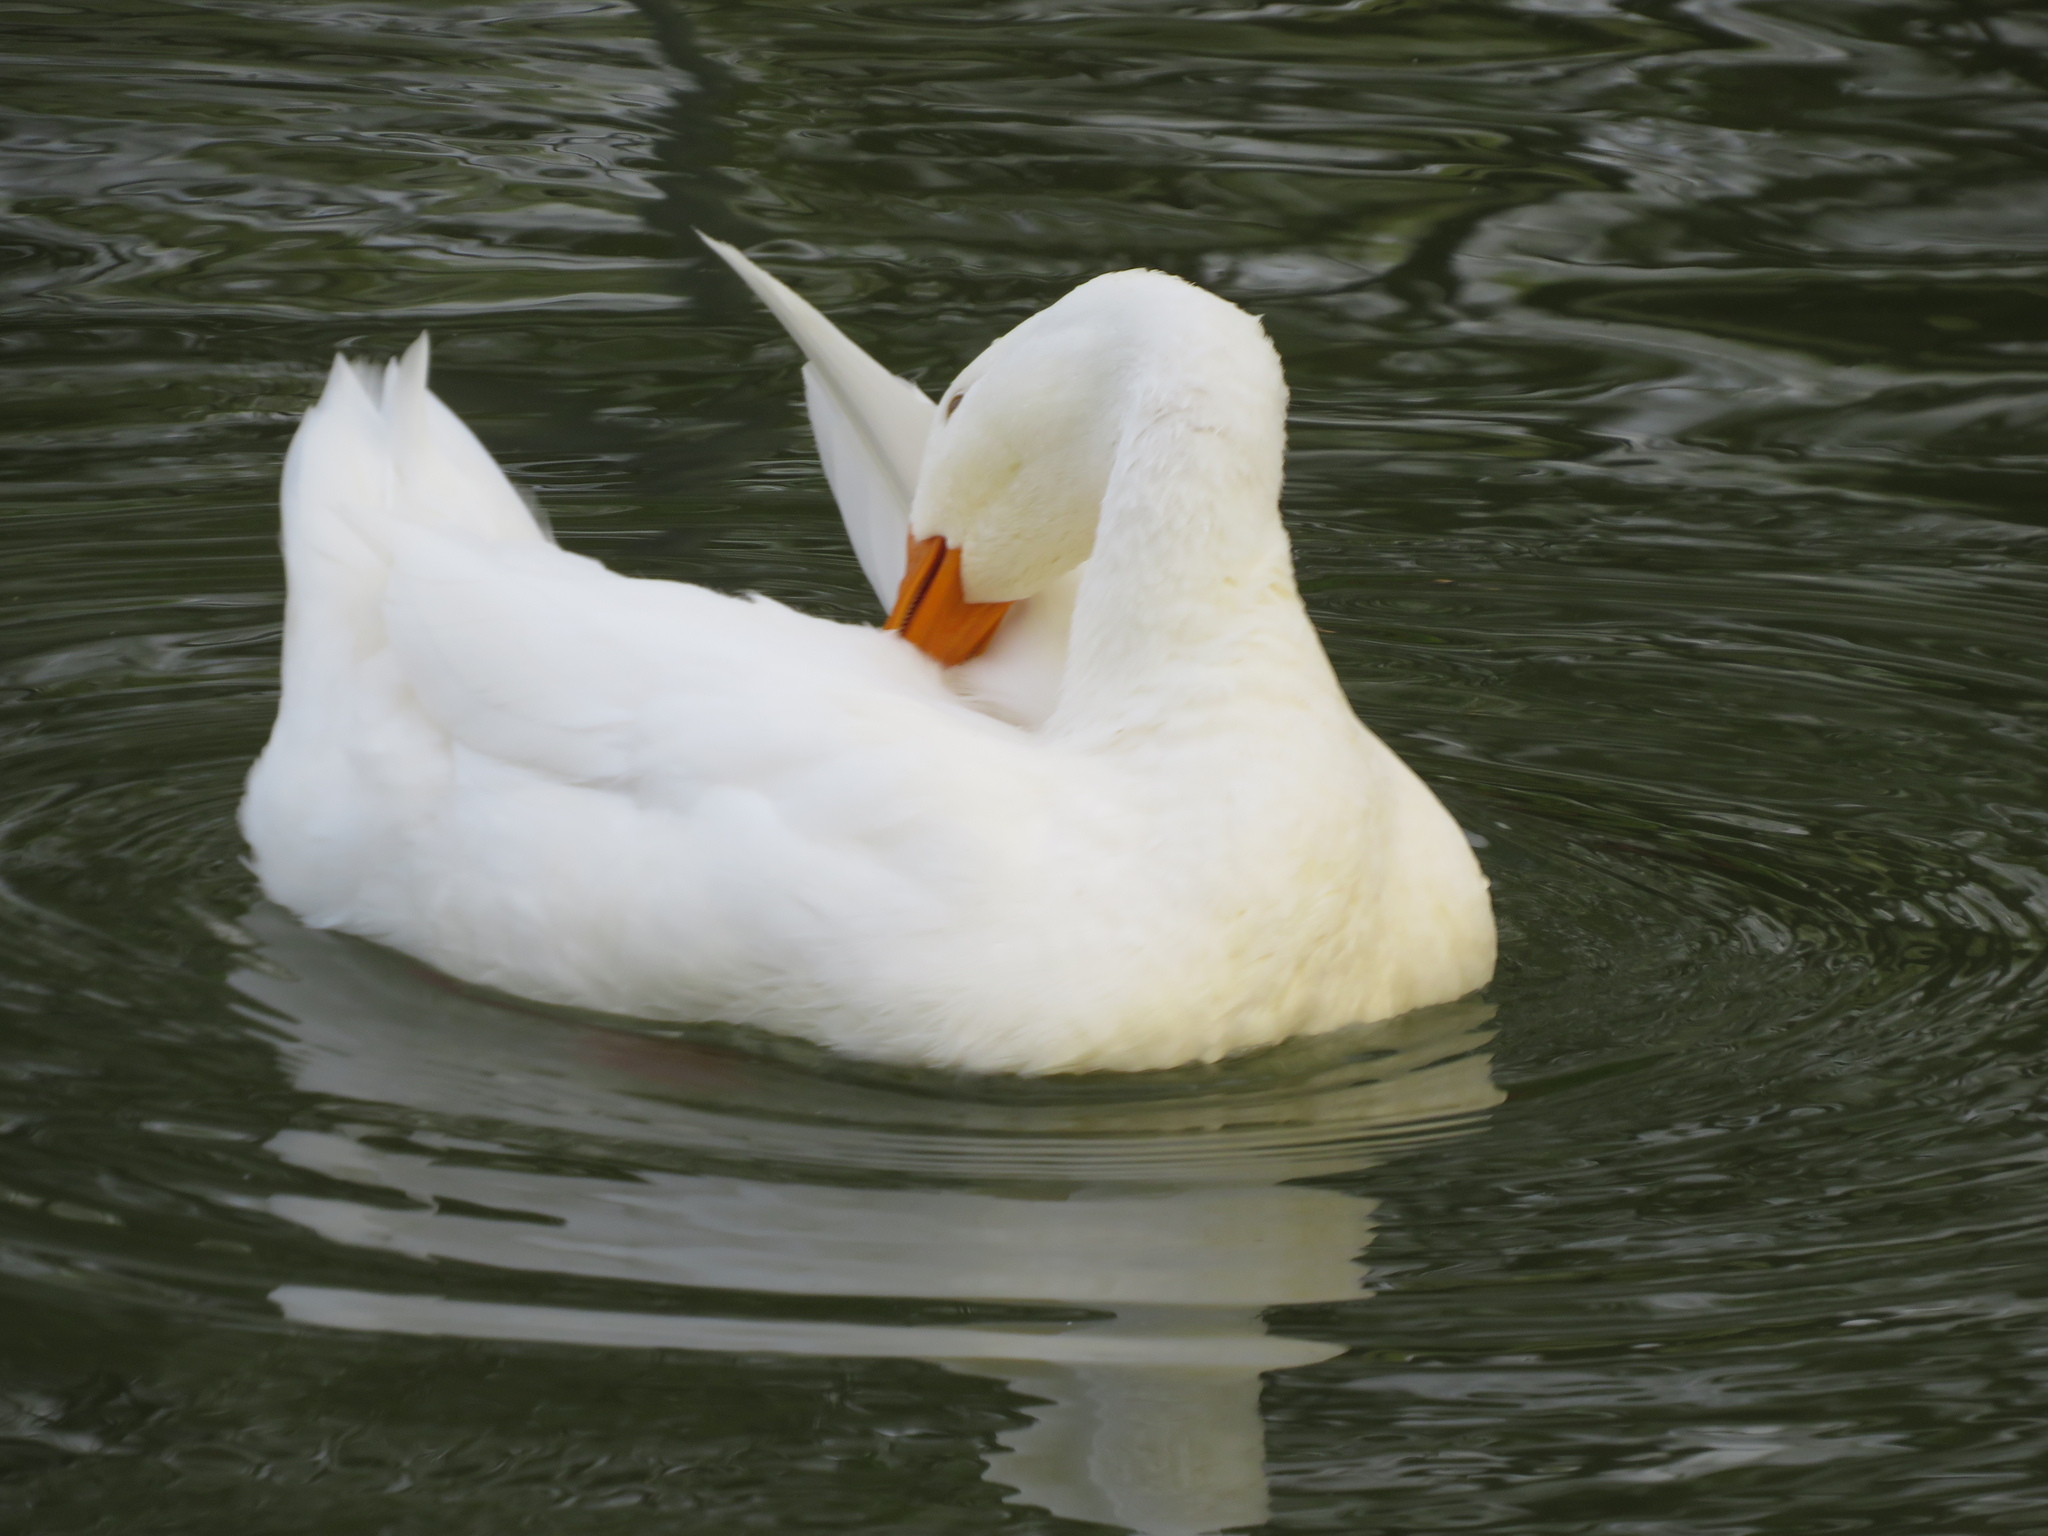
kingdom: Animalia
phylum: Chordata
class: Aves
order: Anseriformes
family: Anatidae
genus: Anas
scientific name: Anas platyrhynchos
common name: Mallard
